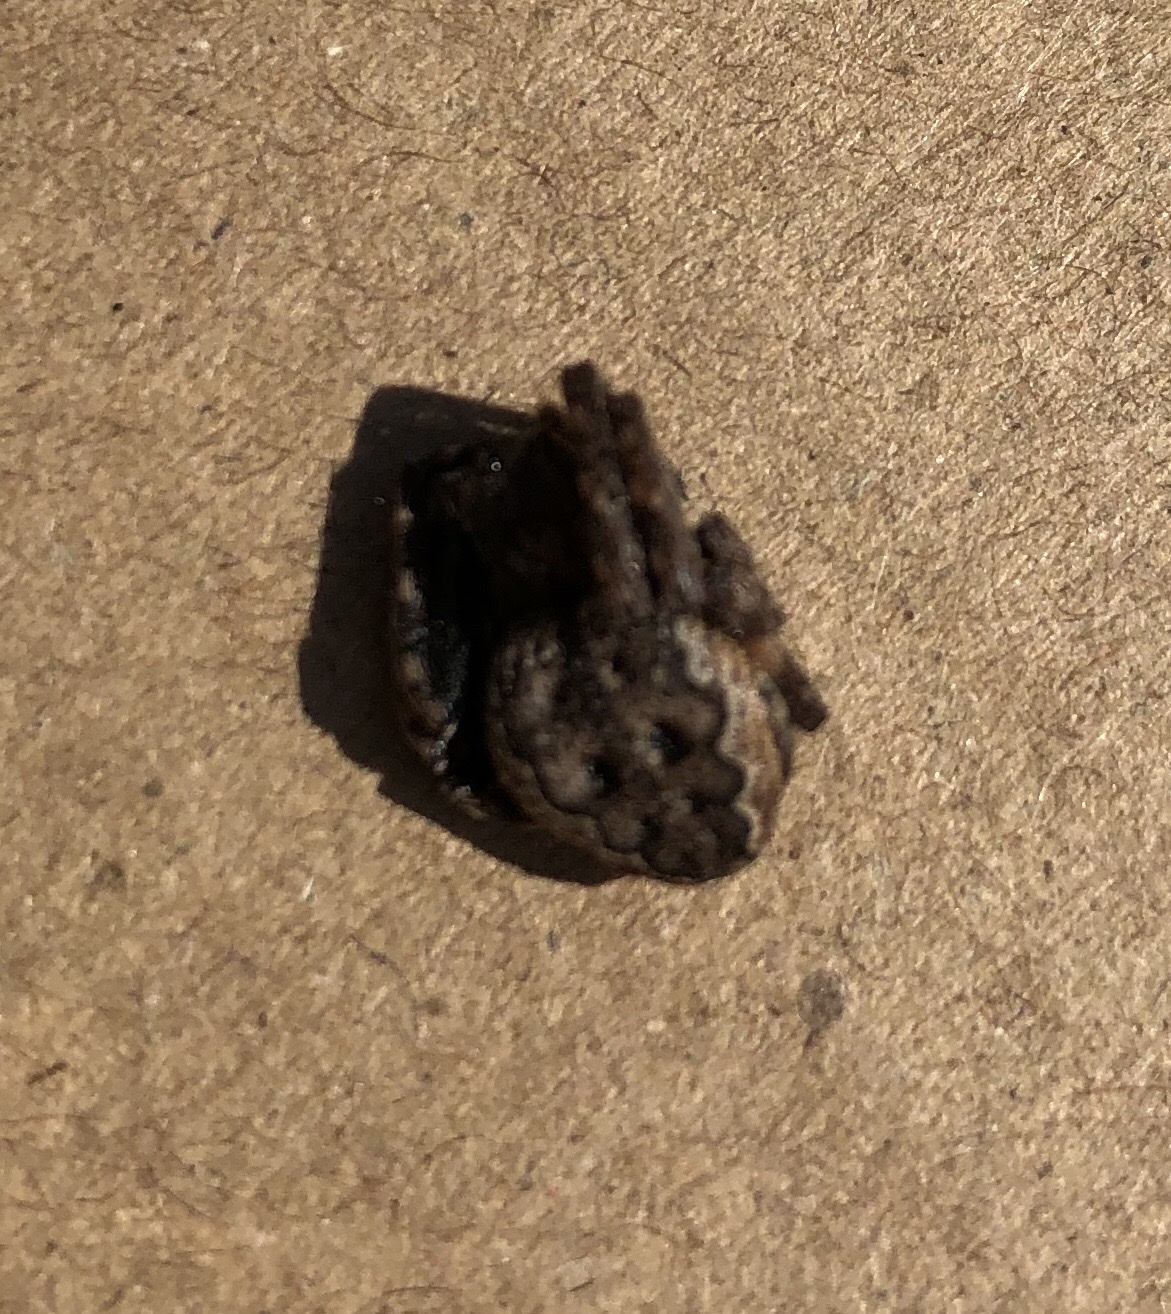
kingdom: Animalia
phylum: Arthropoda
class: Arachnida
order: Araneae
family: Araneidae
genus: Nuctenea
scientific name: Nuctenea umbratica
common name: Toad spider
